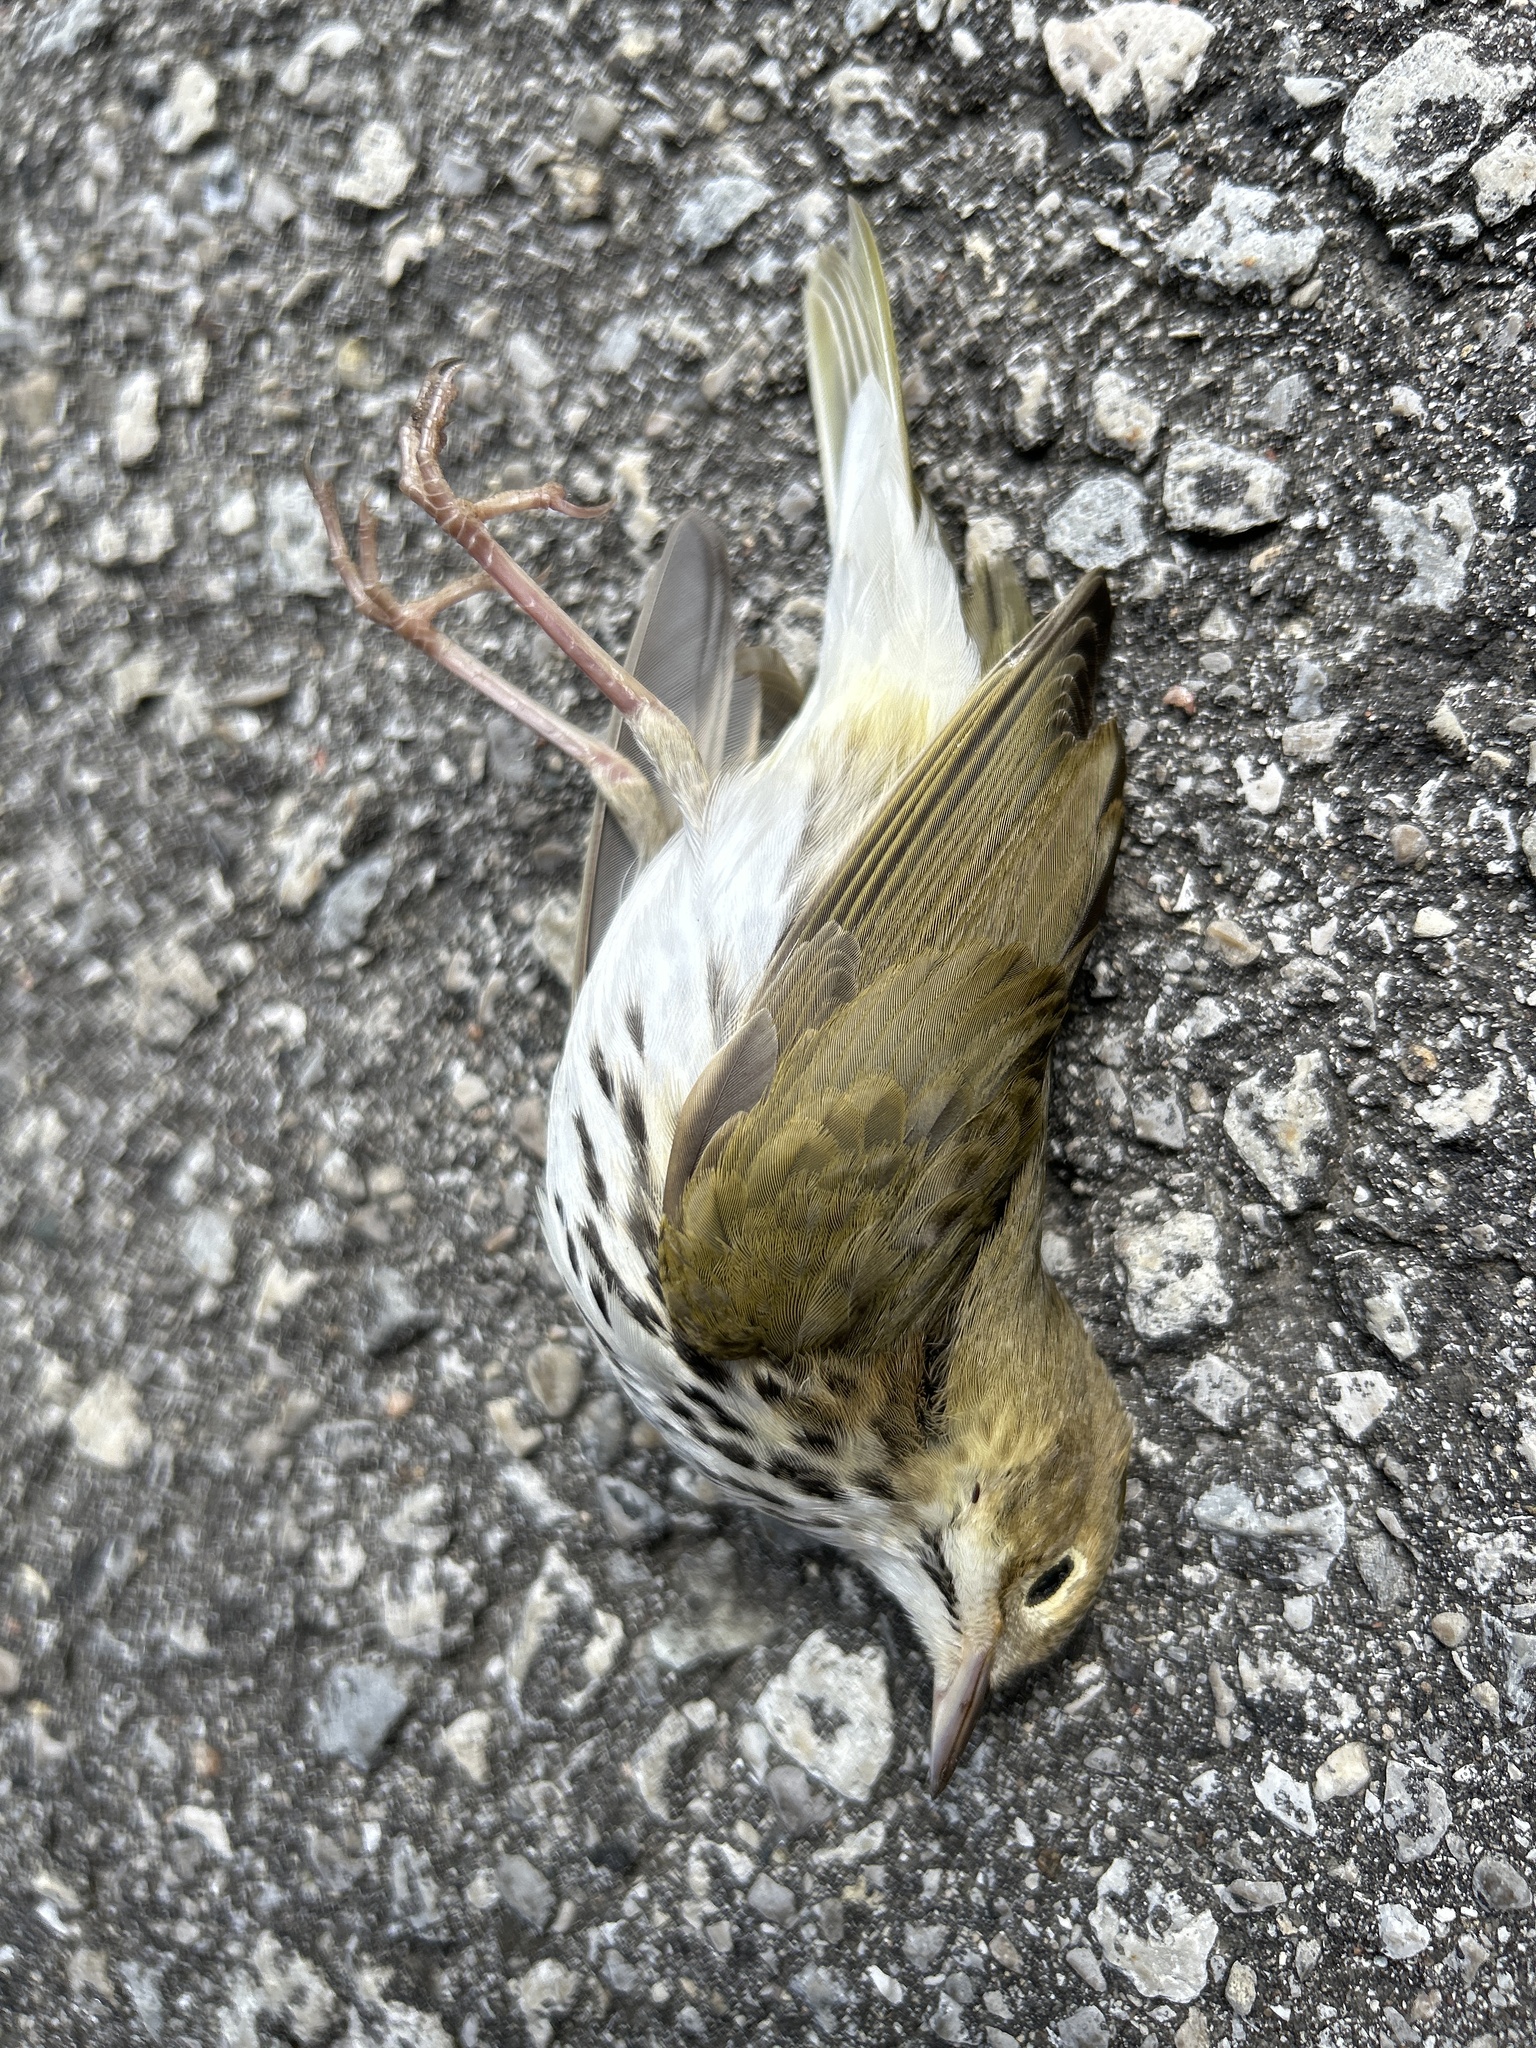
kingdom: Animalia
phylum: Chordata
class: Aves
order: Passeriformes
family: Parulidae
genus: Seiurus
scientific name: Seiurus aurocapilla
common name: Ovenbird
